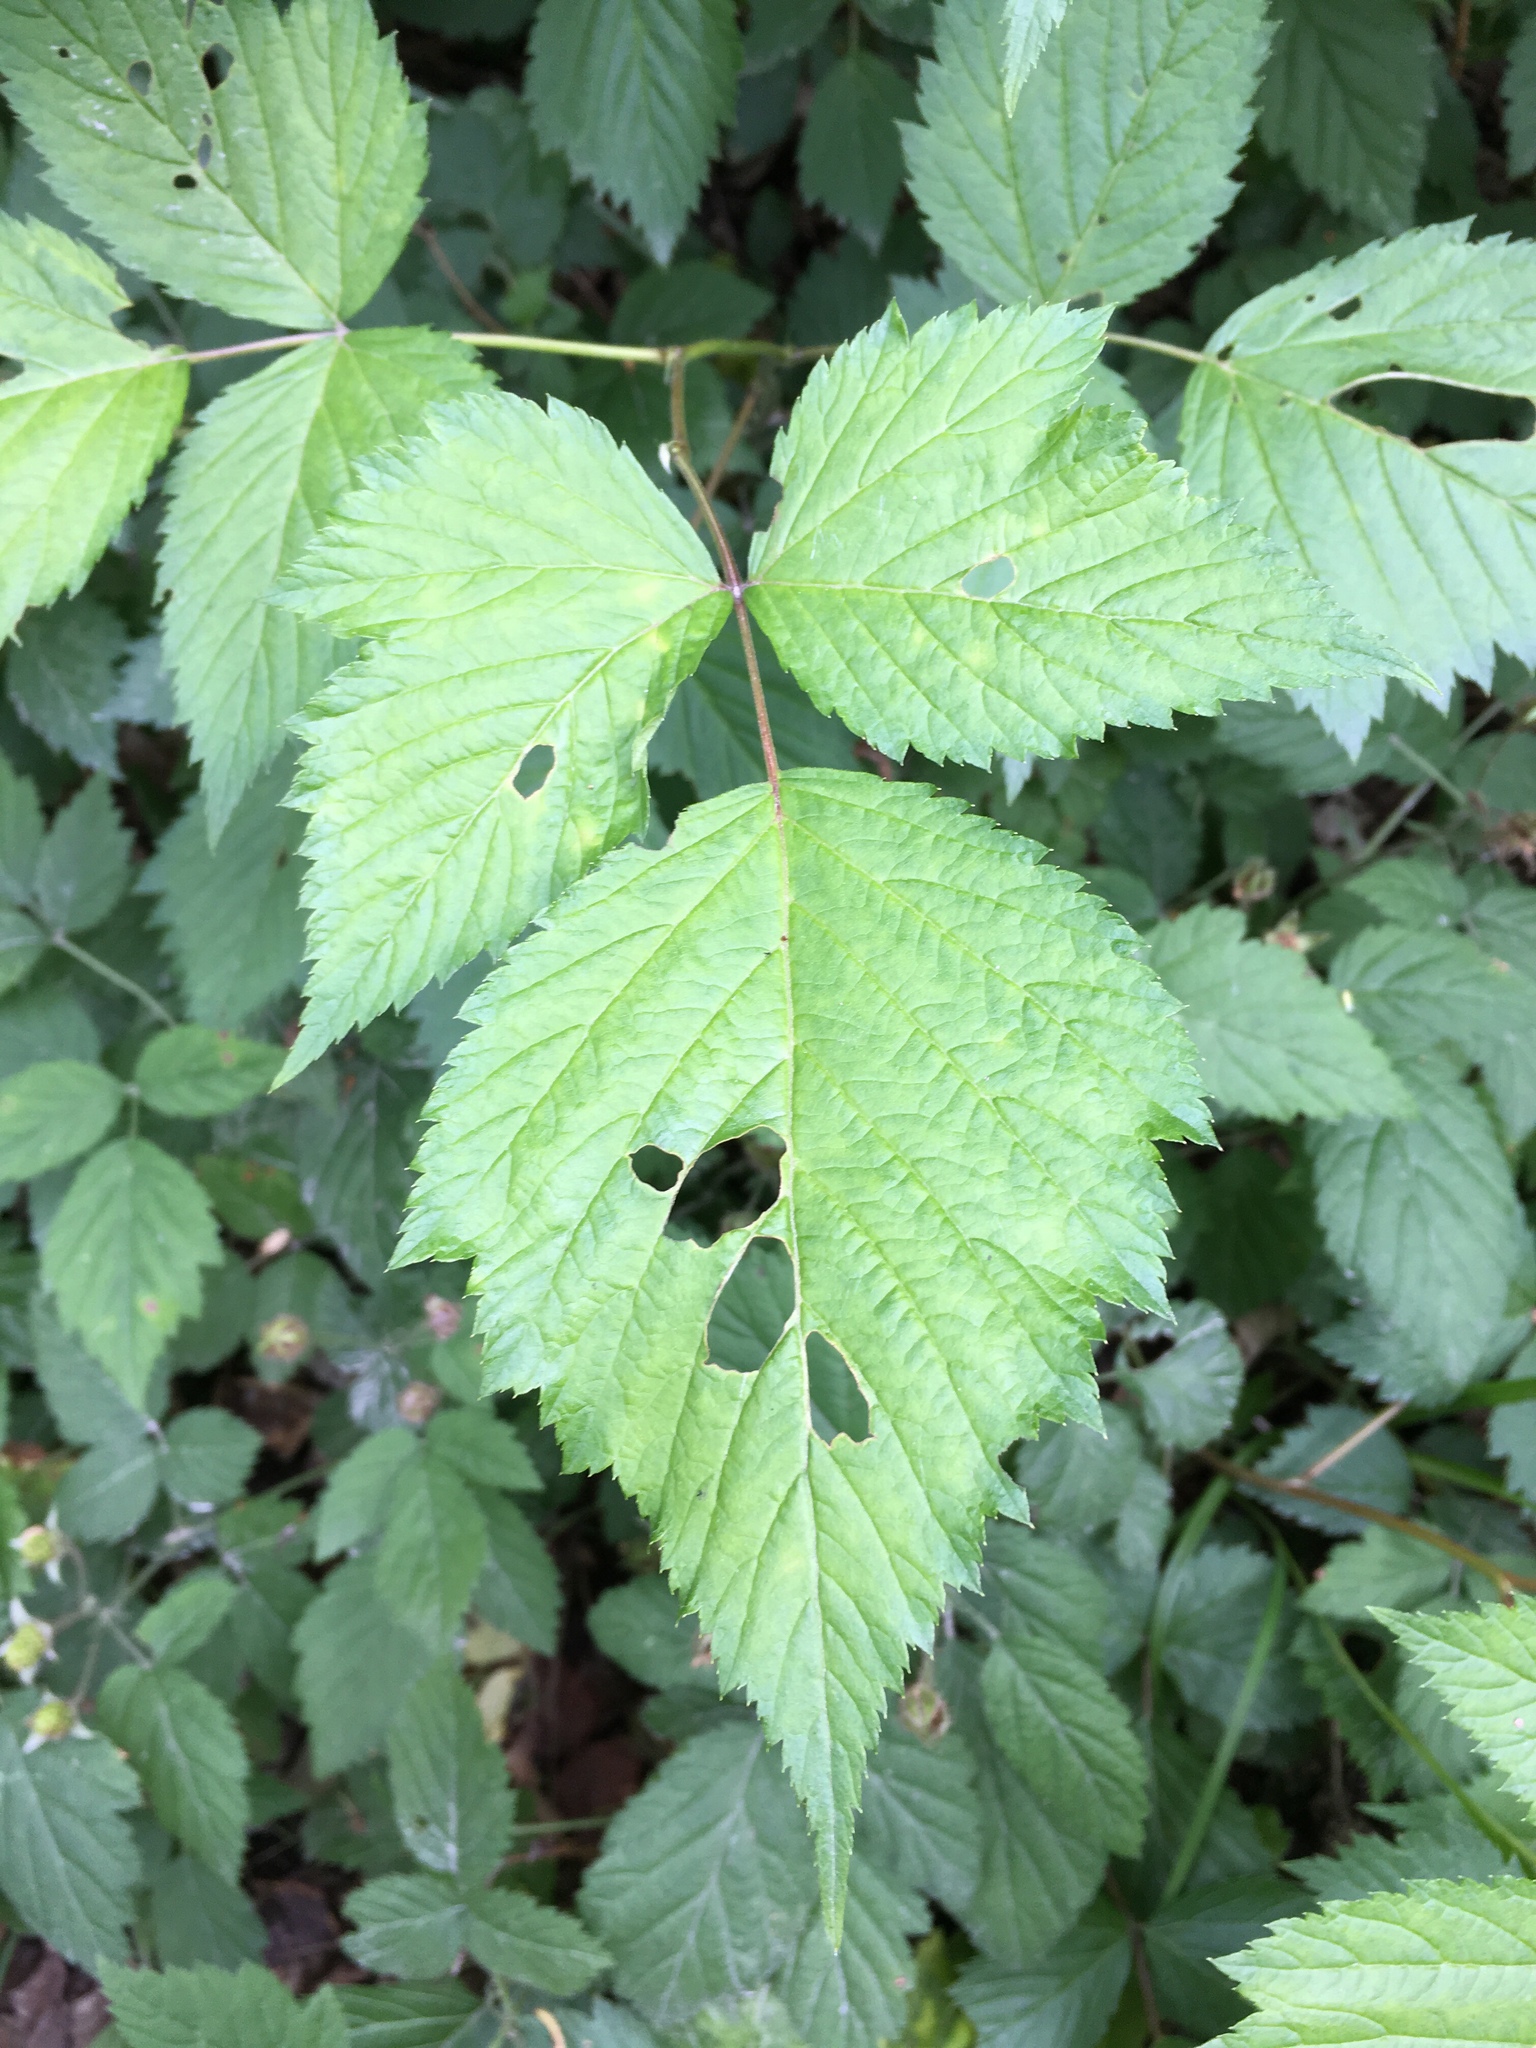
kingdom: Plantae
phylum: Tracheophyta
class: Magnoliopsida
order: Rosales
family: Rosaceae
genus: Rubus
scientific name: Rubus spectabilis
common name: Salmonberry
